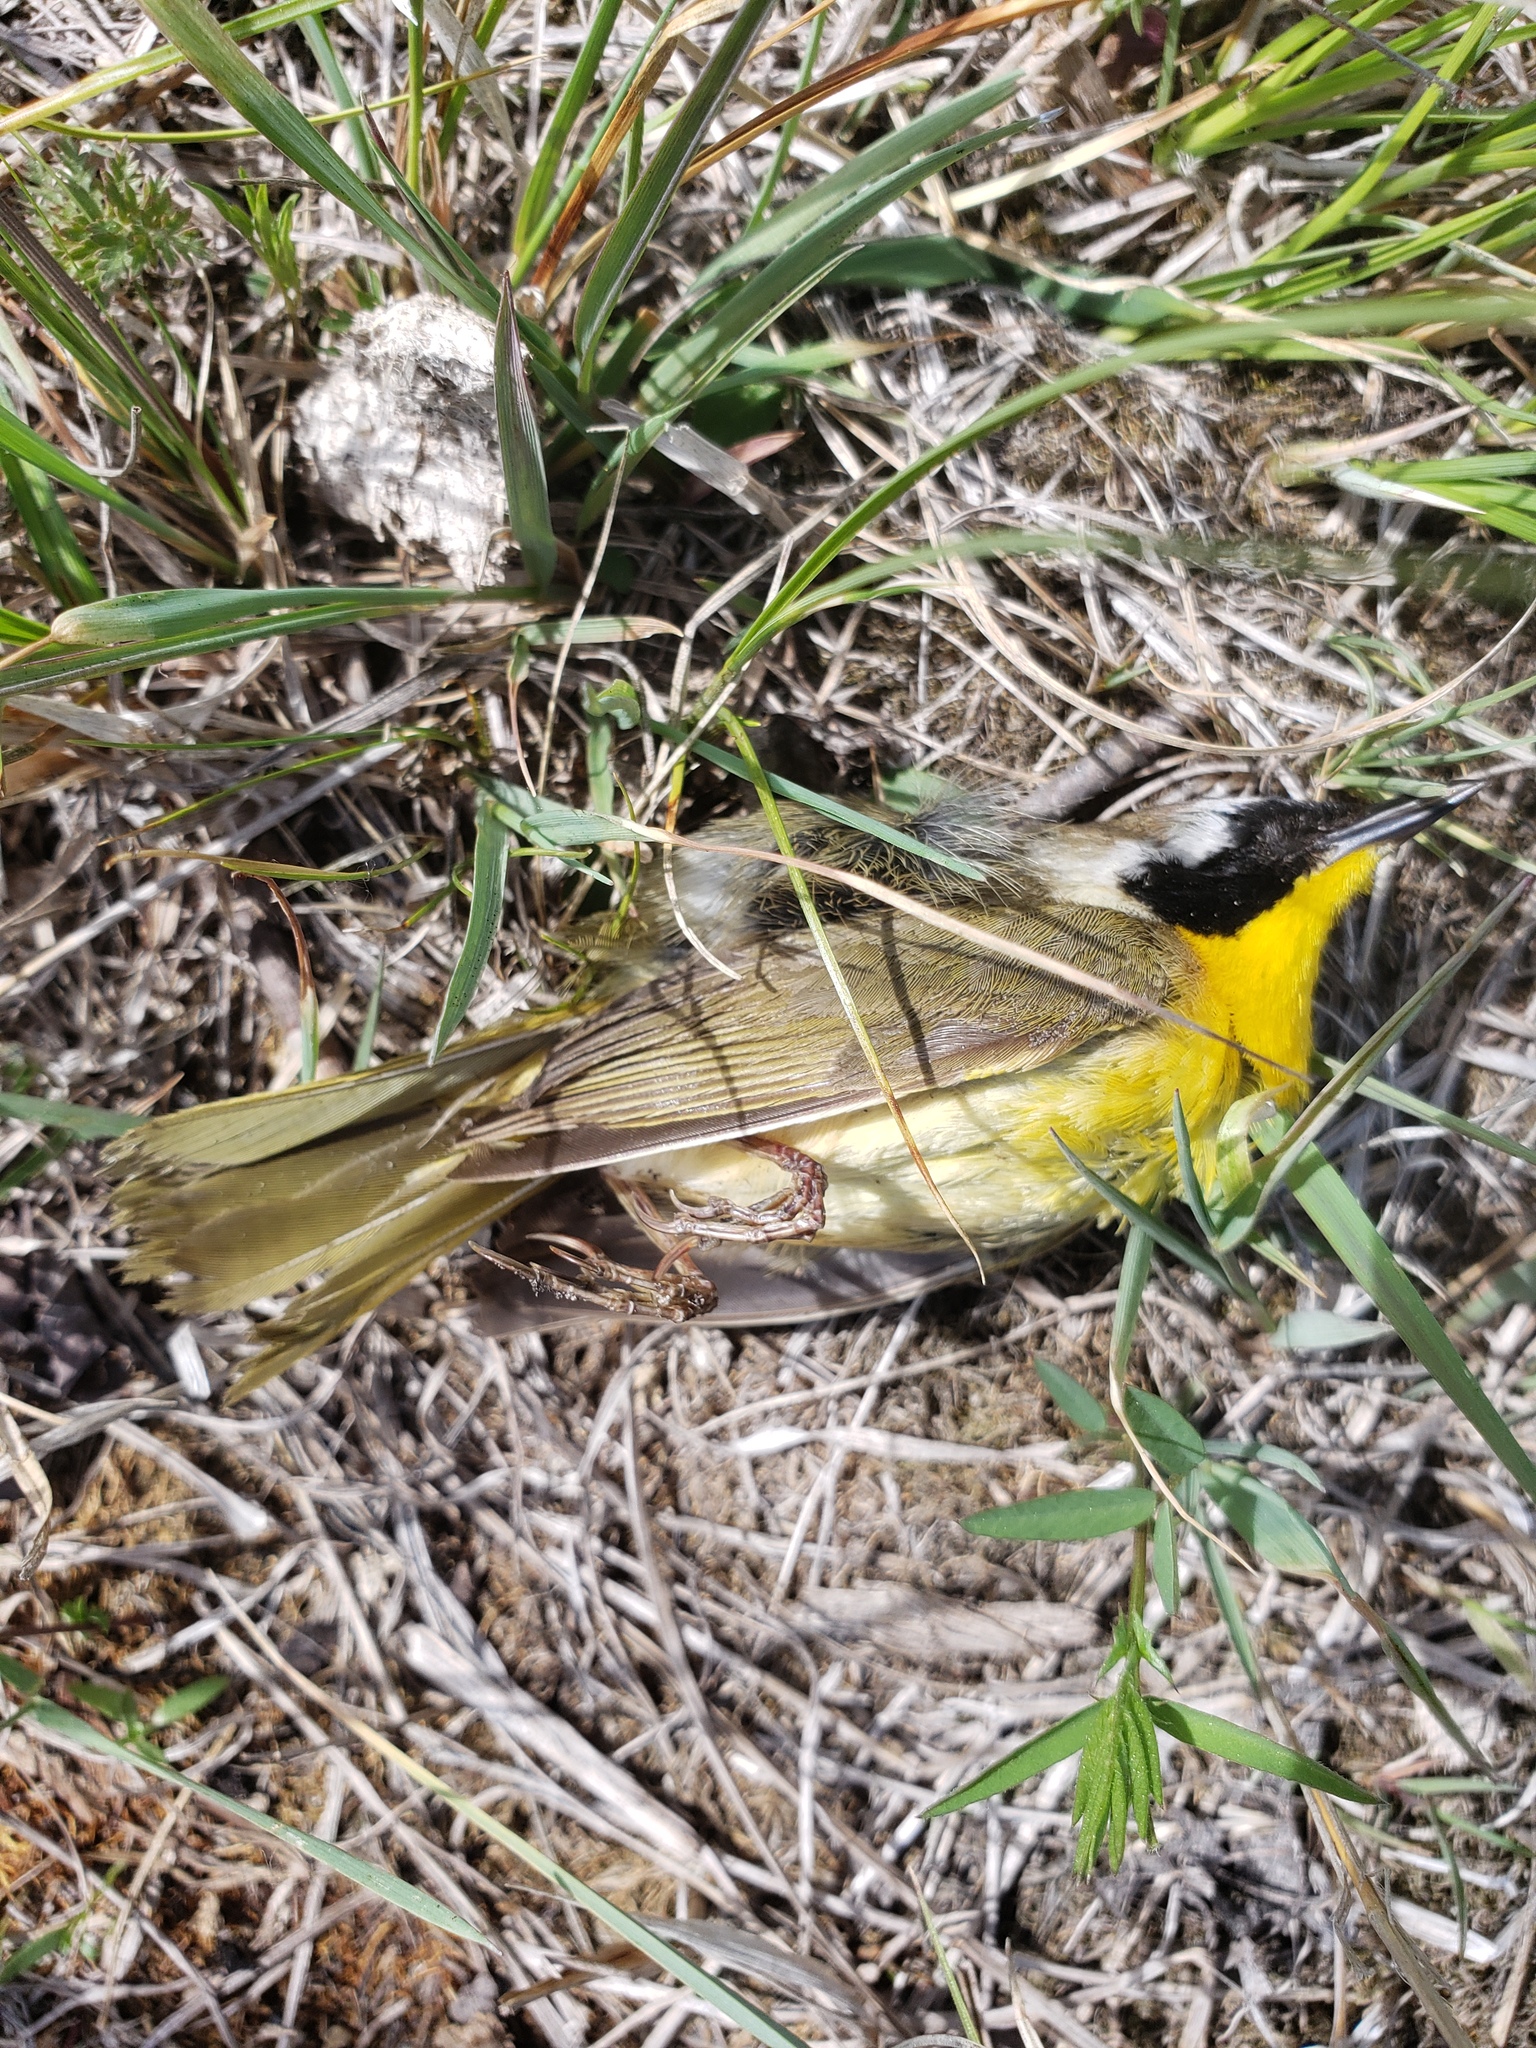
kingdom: Animalia
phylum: Chordata
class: Aves
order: Passeriformes
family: Parulidae
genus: Geothlypis
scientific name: Geothlypis trichas
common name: Common yellowthroat
